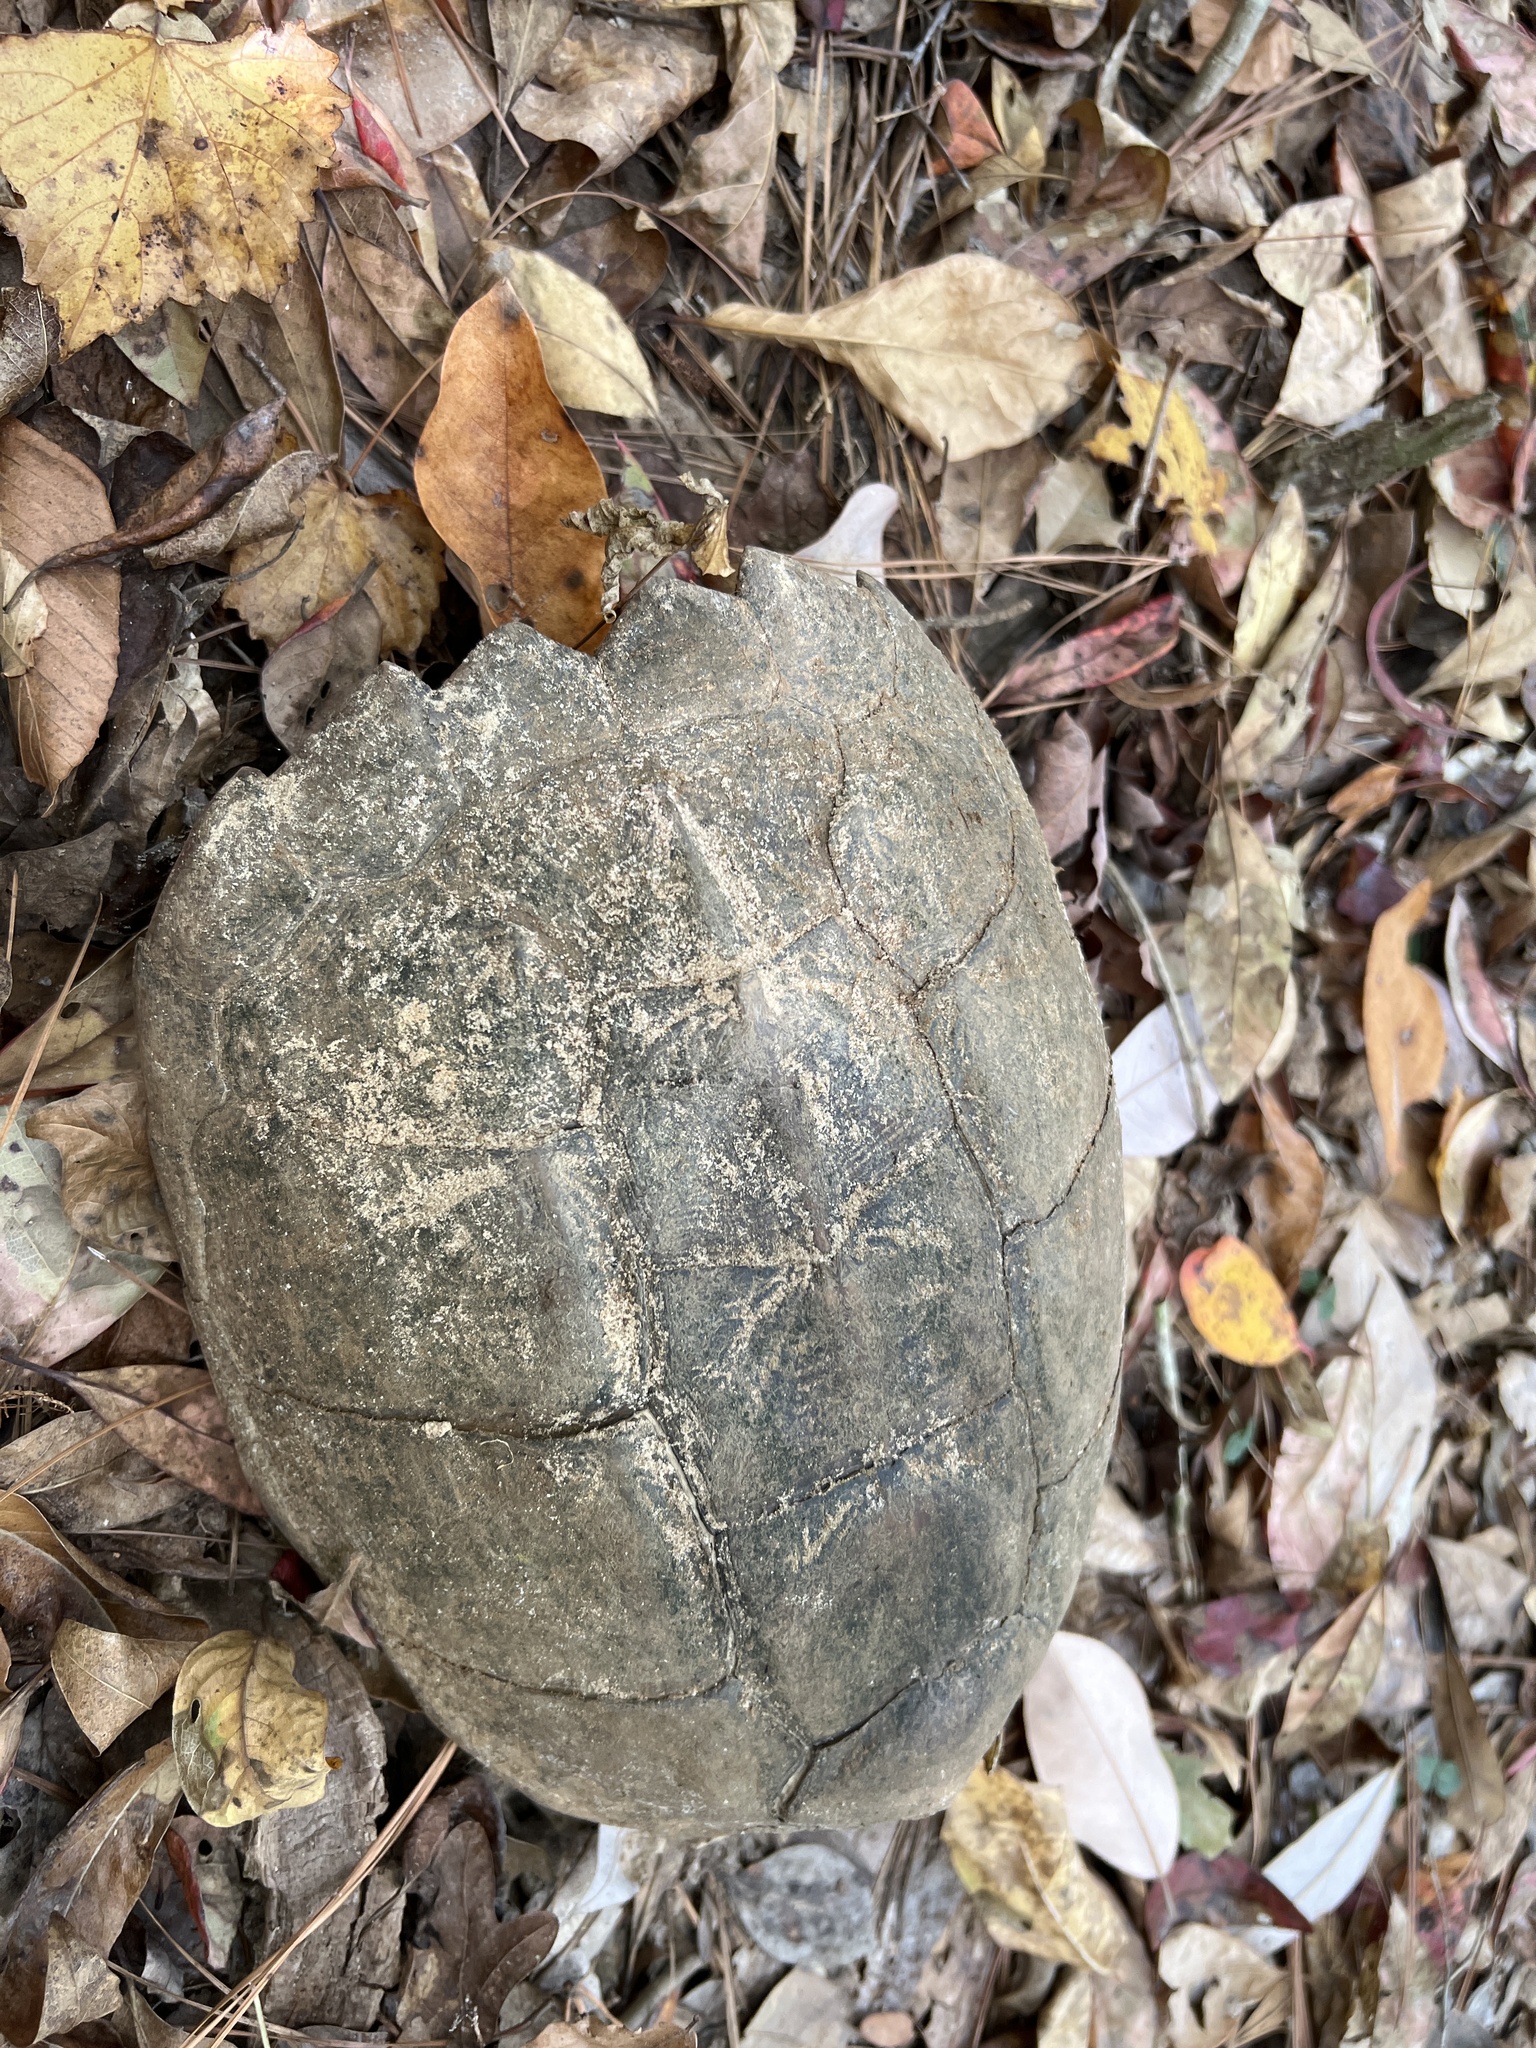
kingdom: Animalia
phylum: Chordata
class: Testudines
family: Chelydridae
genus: Chelydra
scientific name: Chelydra serpentina
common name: Common snapping turtle
